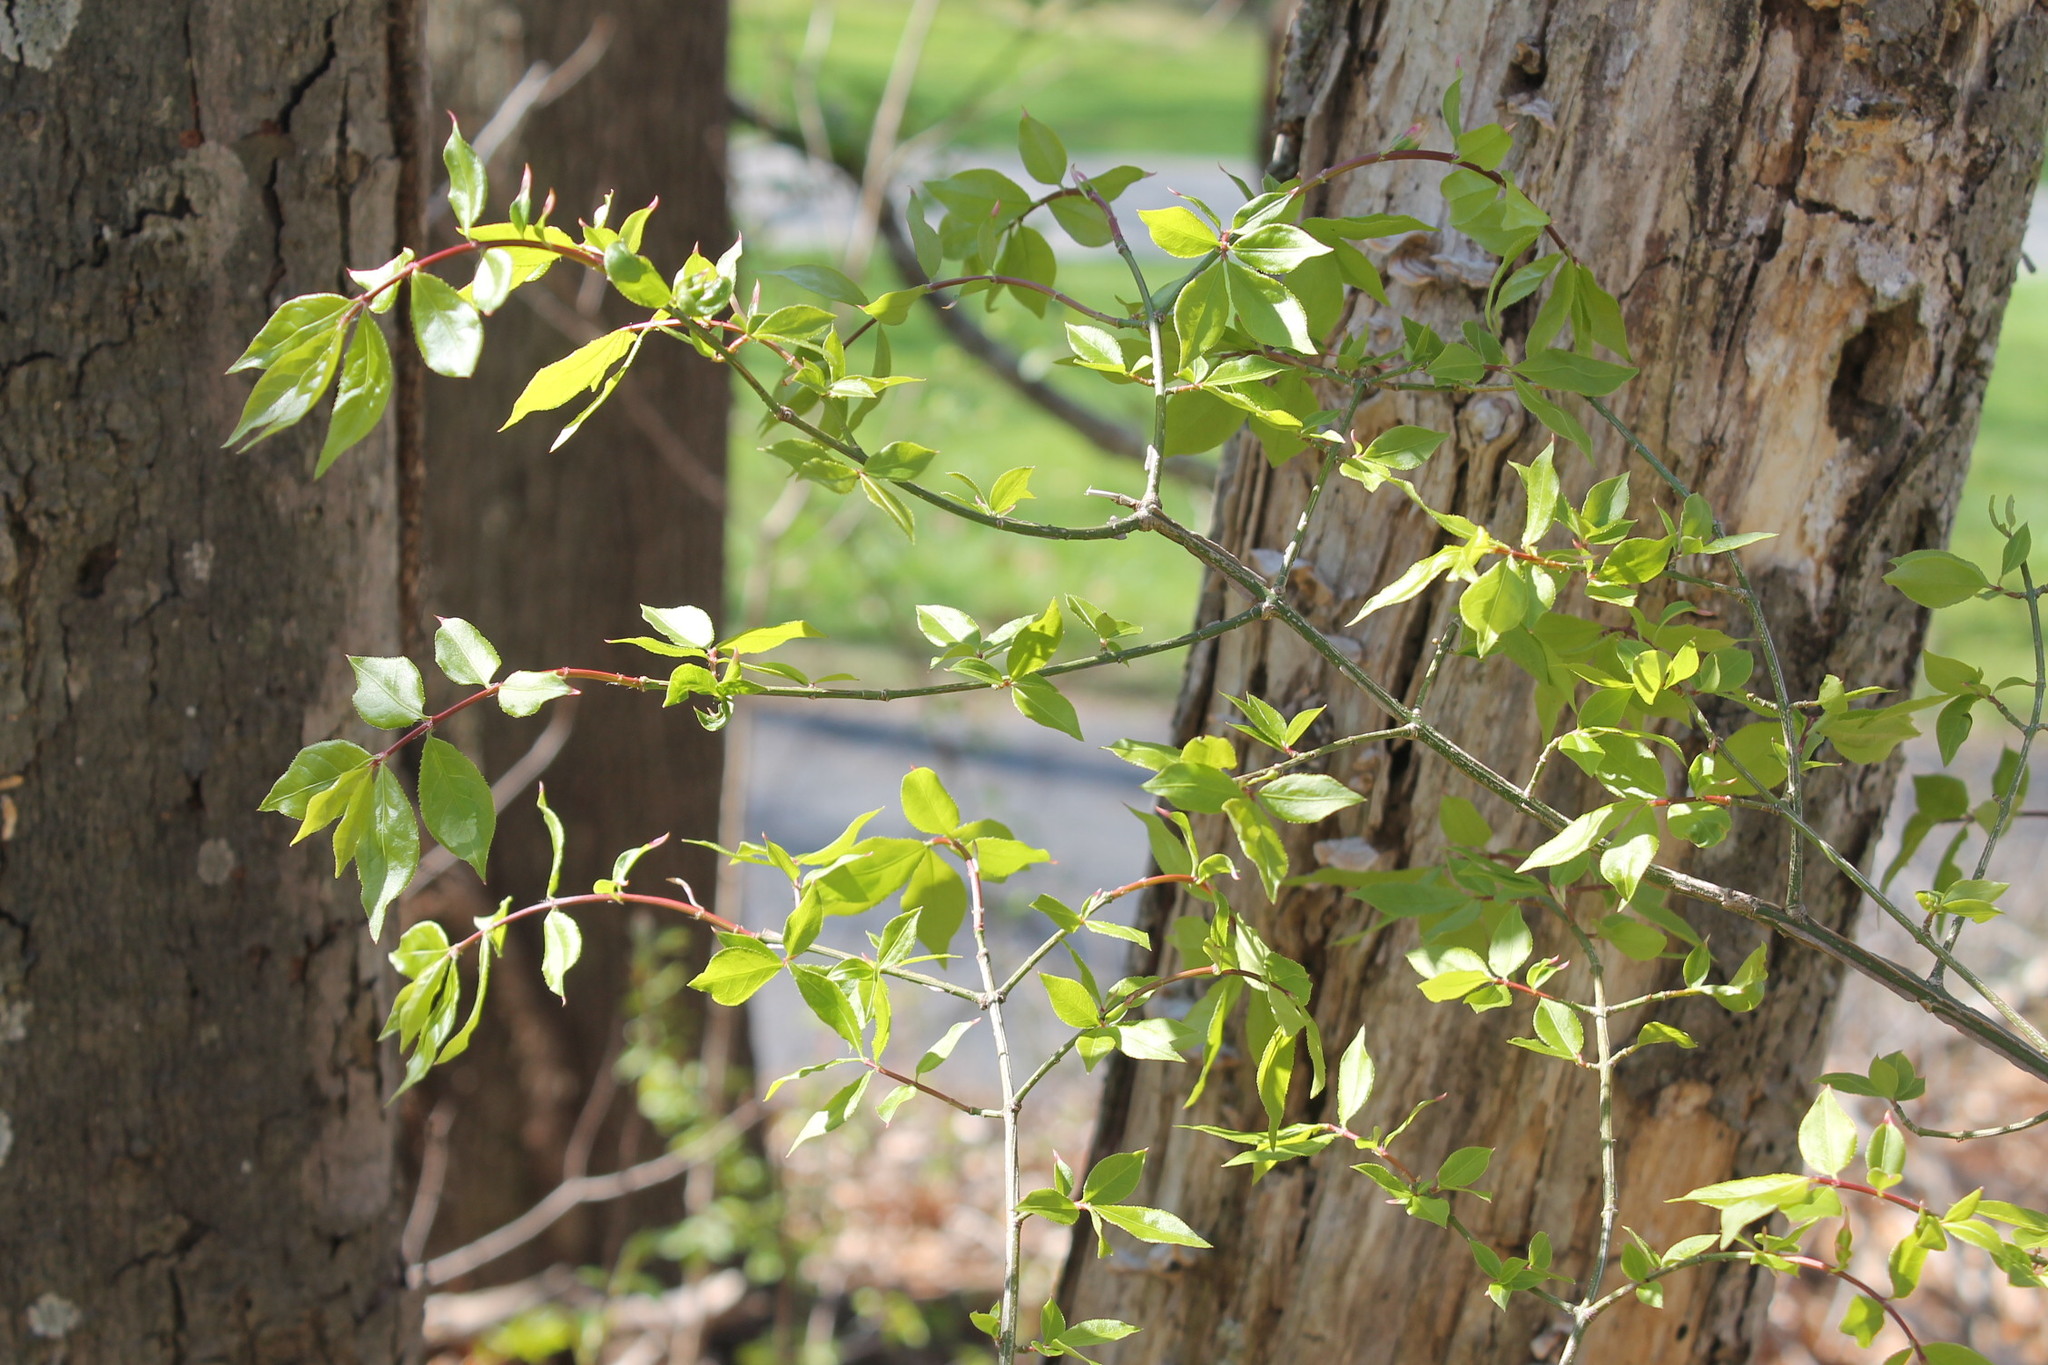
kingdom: Plantae
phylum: Tracheophyta
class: Magnoliopsida
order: Celastrales
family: Celastraceae
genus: Euonymus
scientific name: Euonymus alatus
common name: Winged euonymus
